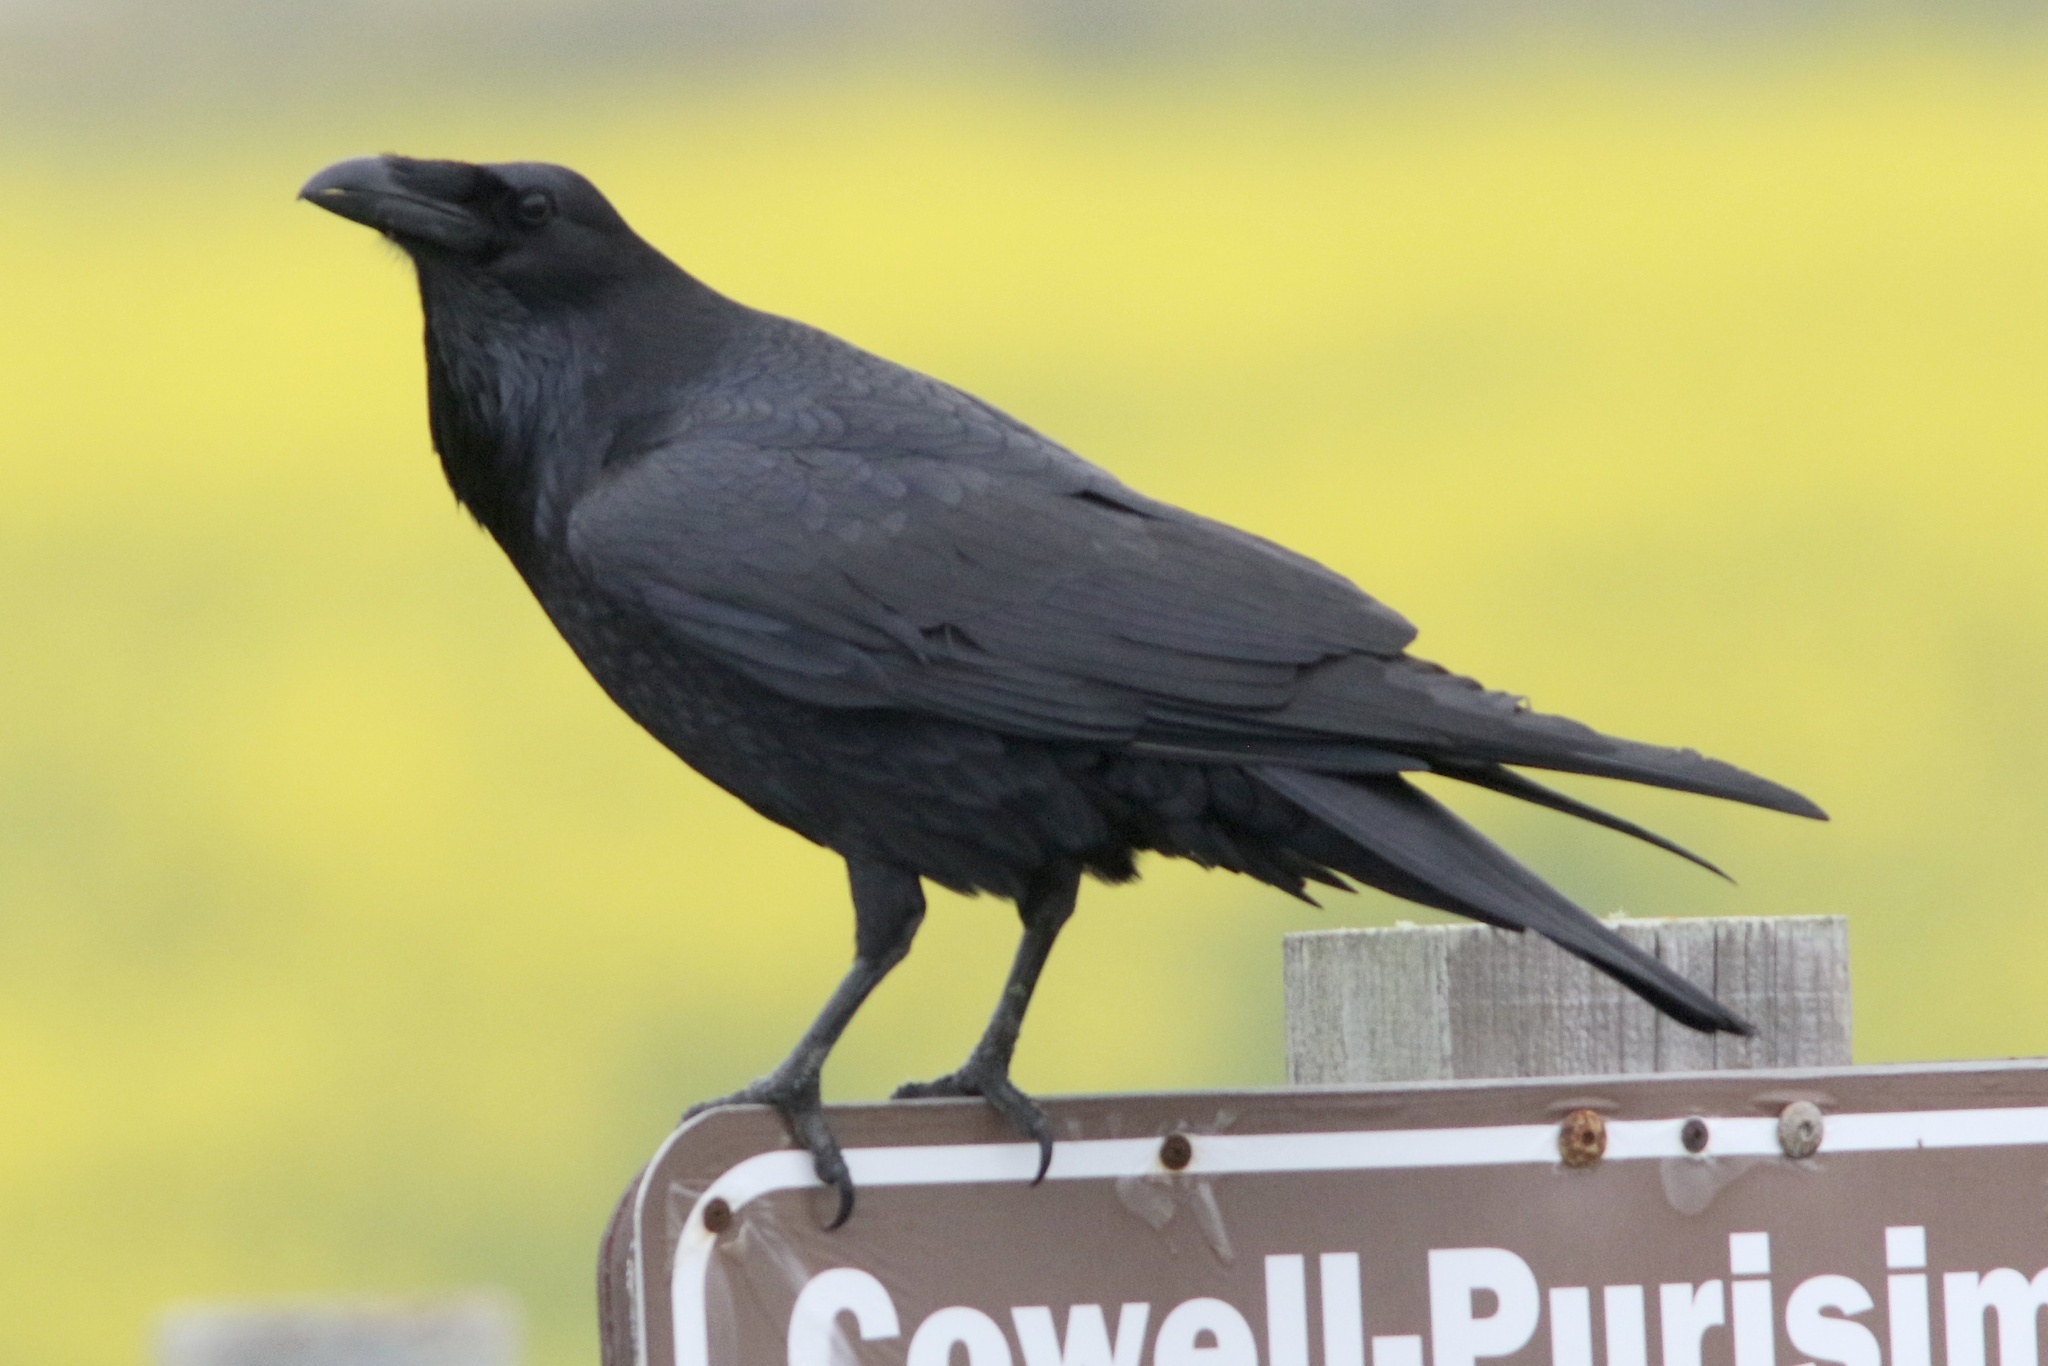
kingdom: Animalia
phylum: Chordata
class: Aves
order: Passeriformes
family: Corvidae
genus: Corvus
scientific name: Corvus corax
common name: Common raven
